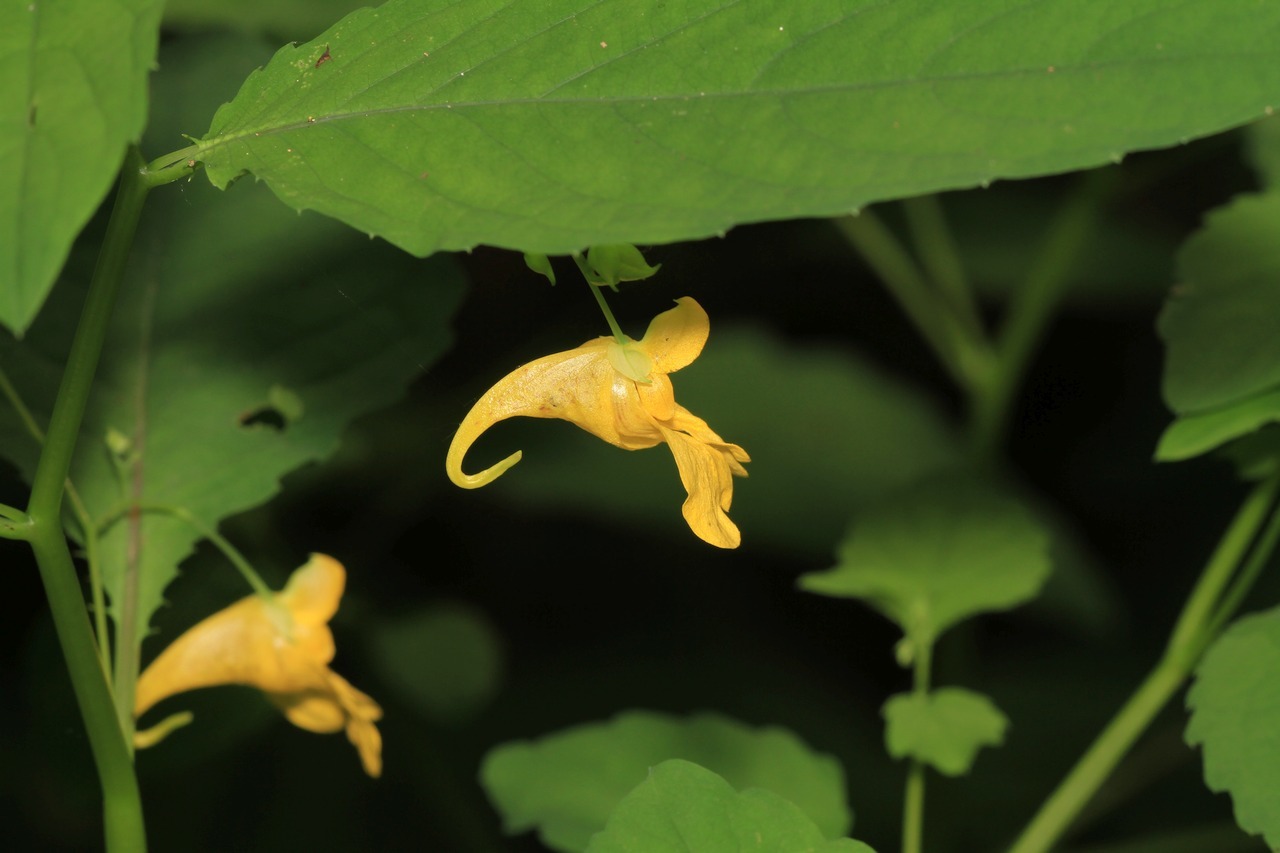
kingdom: Plantae
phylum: Tracheophyta
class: Magnoliopsida
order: Ericales
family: Balsaminaceae
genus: Impatiens
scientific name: Impatiens noli-tangere
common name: Touch-me-not balsam
